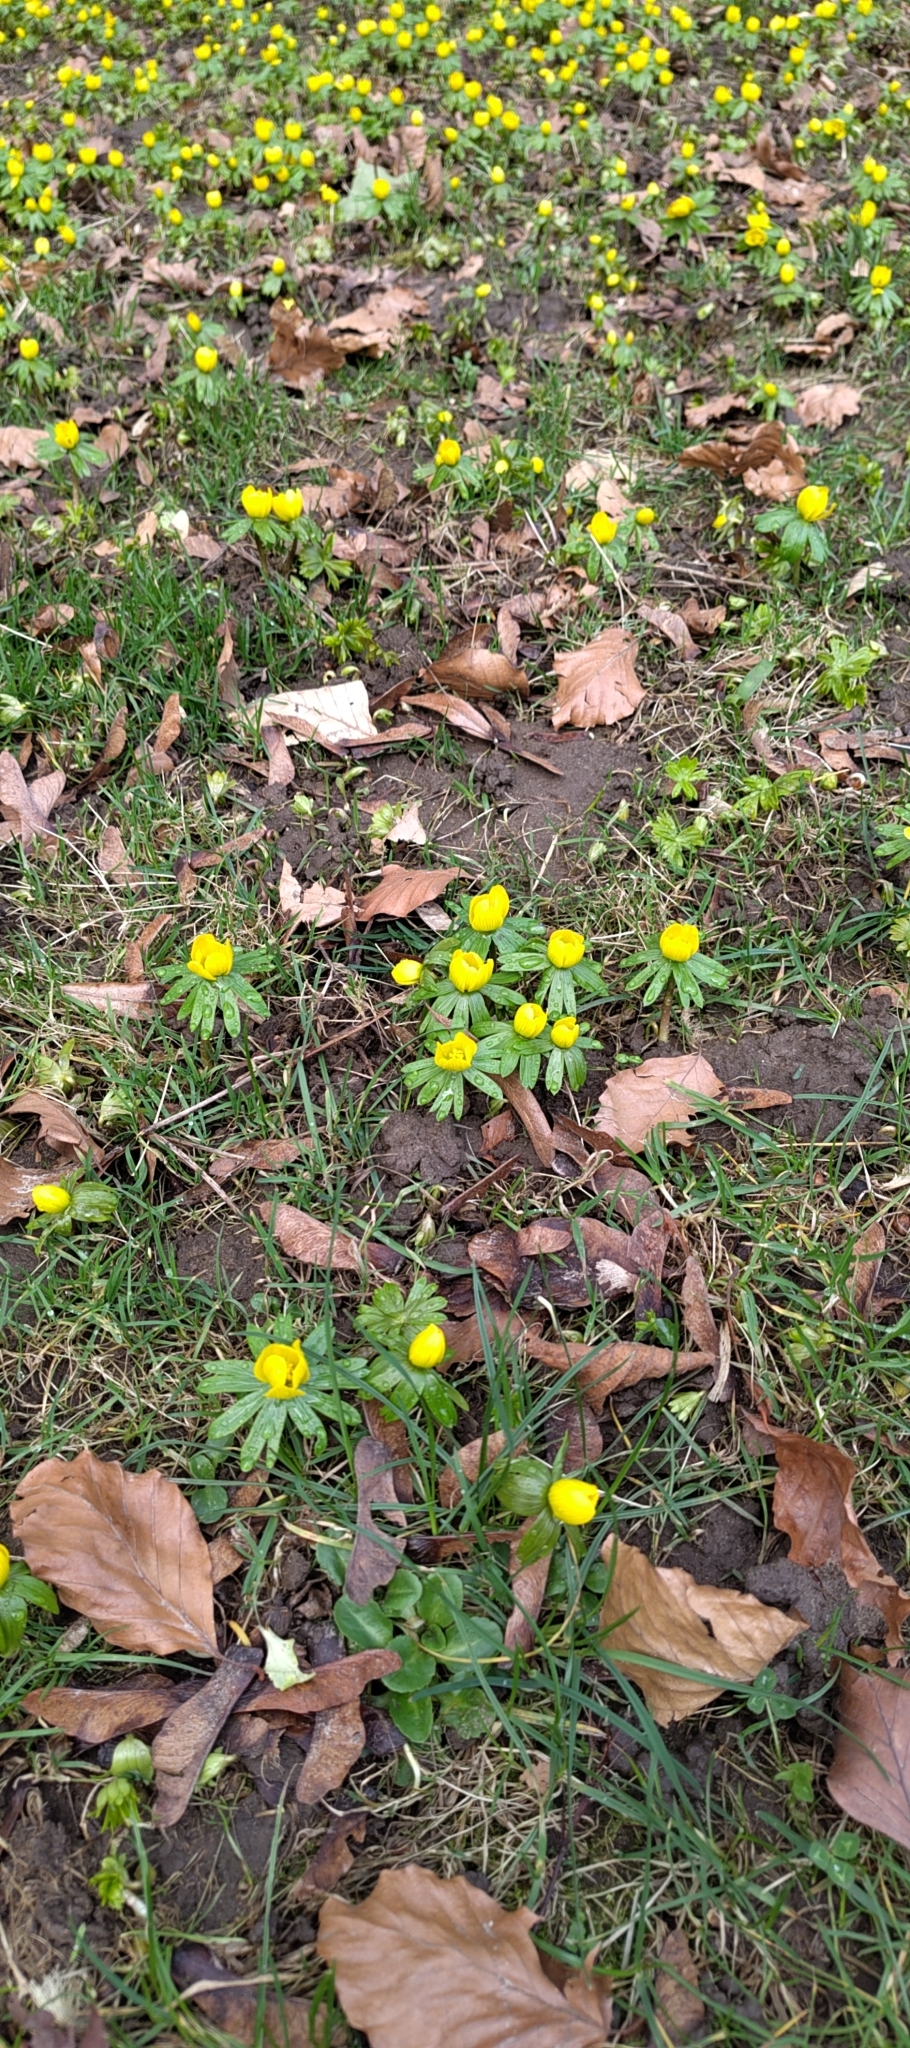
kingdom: Plantae
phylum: Tracheophyta
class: Magnoliopsida
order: Ranunculales
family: Ranunculaceae
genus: Eranthis
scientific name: Eranthis hyemalis
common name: Winter aconite
